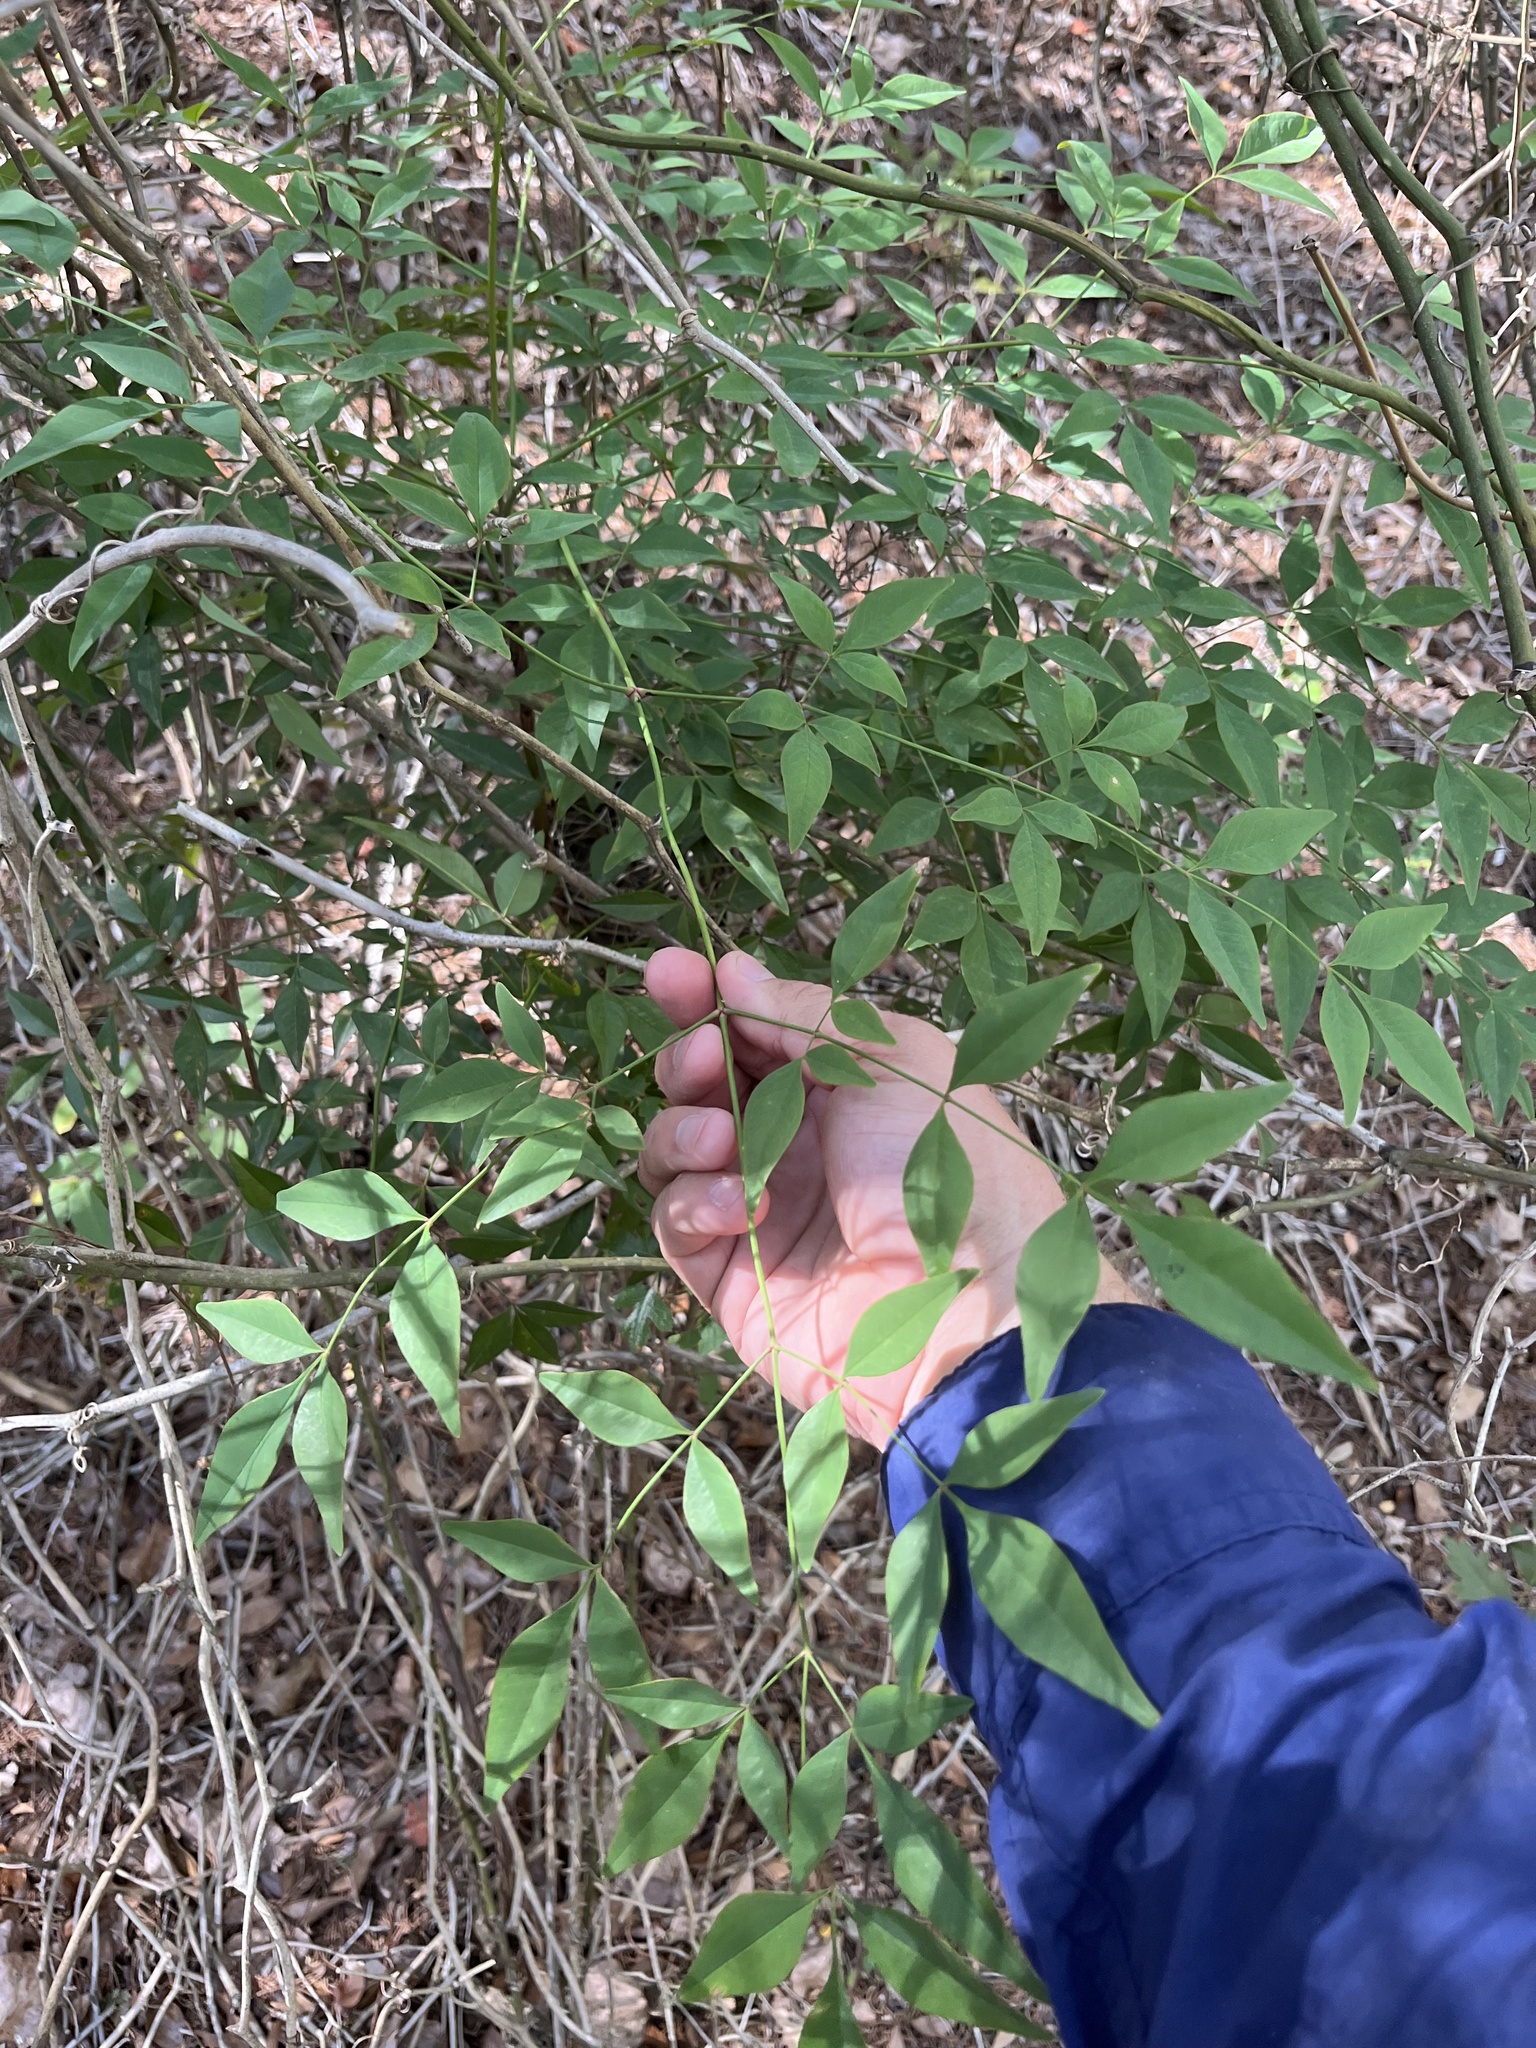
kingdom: Plantae
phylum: Tracheophyta
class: Magnoliopsida
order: Ranunculales
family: Berberidaceae
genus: Nandina
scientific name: Nandina domestica
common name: Sacred bamboo
